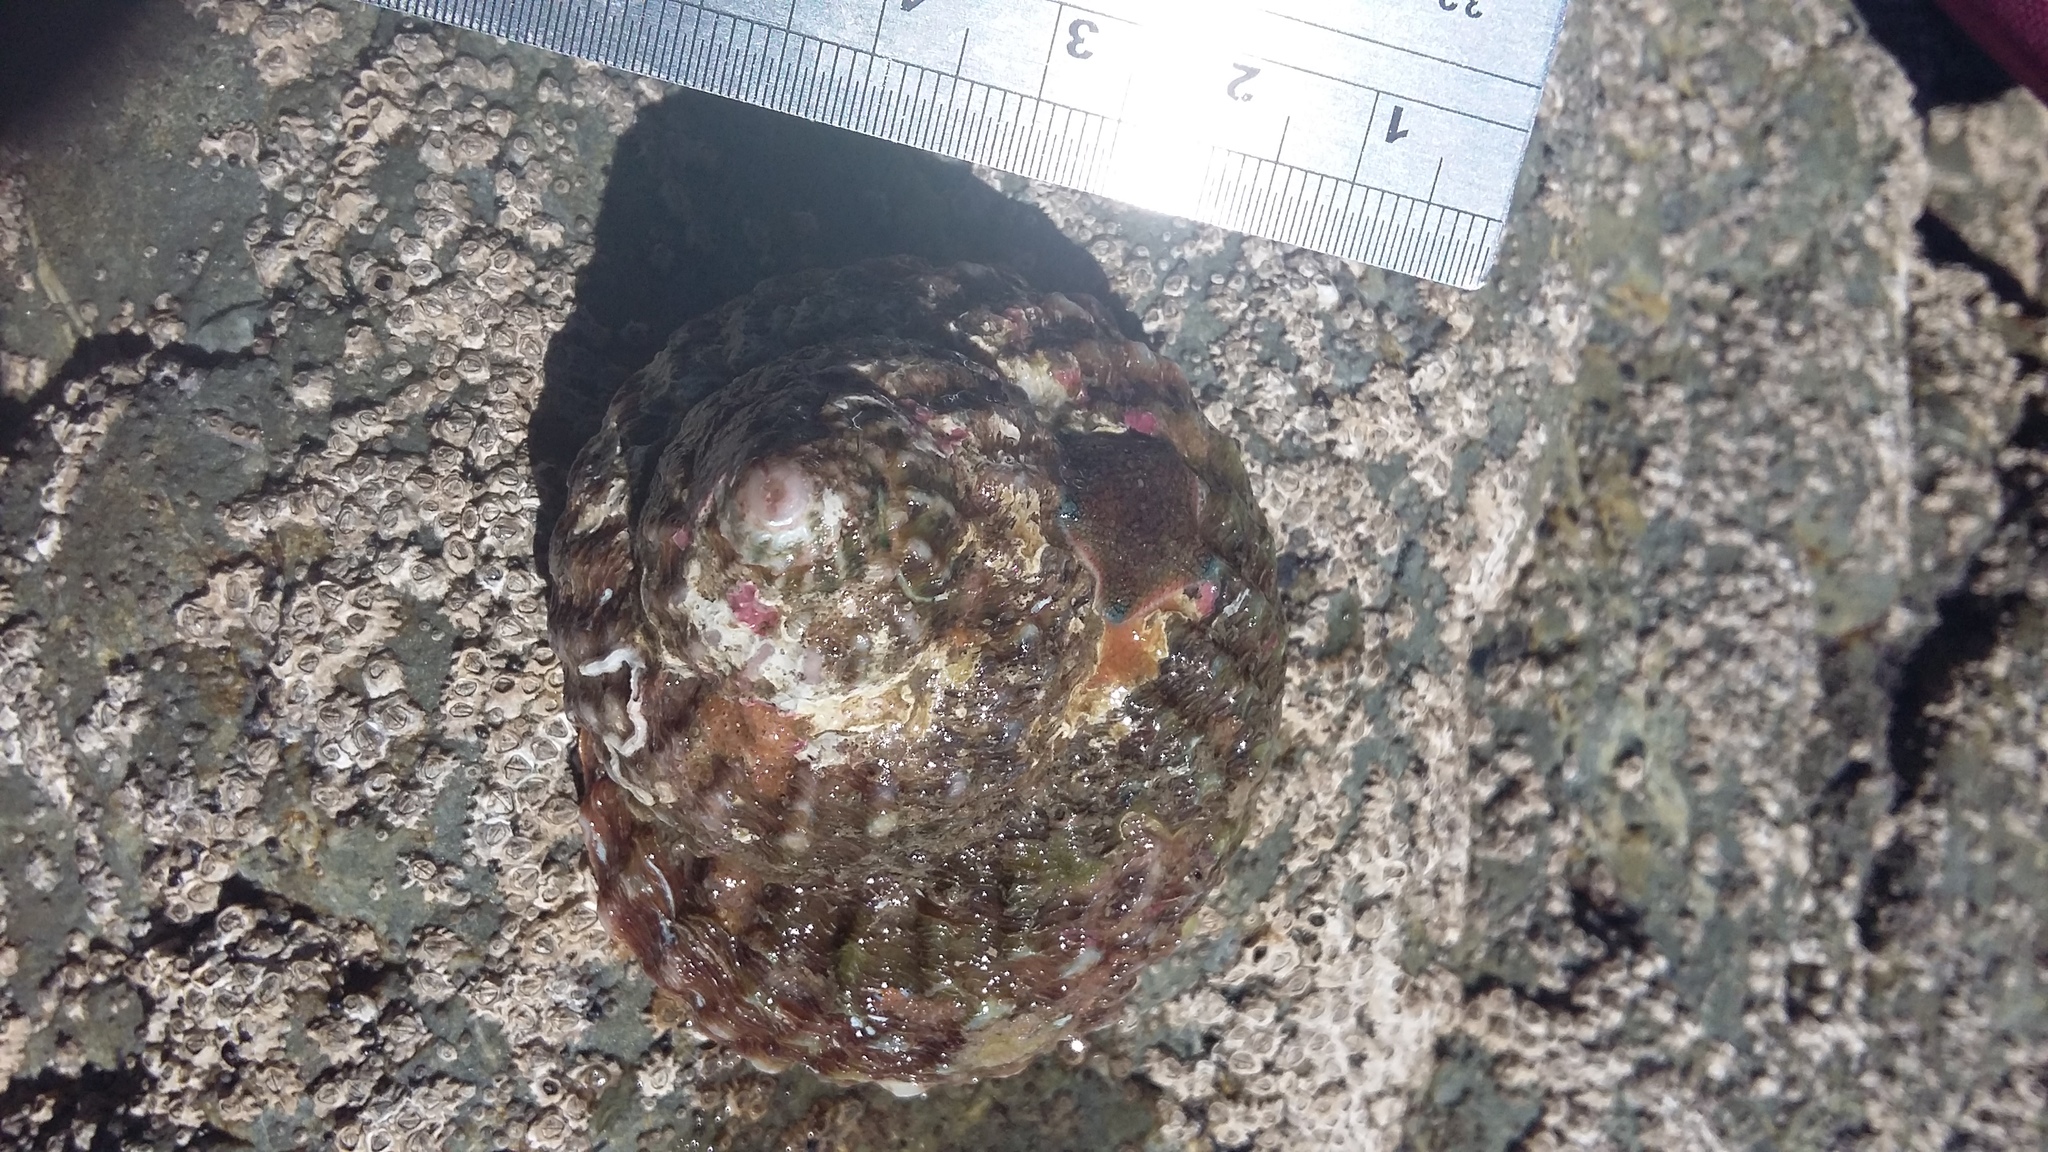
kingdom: Animalia
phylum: Mollusca
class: Gastropoda
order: Trochida
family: Turbinidae
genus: Cookia
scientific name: Cookia sulcata
